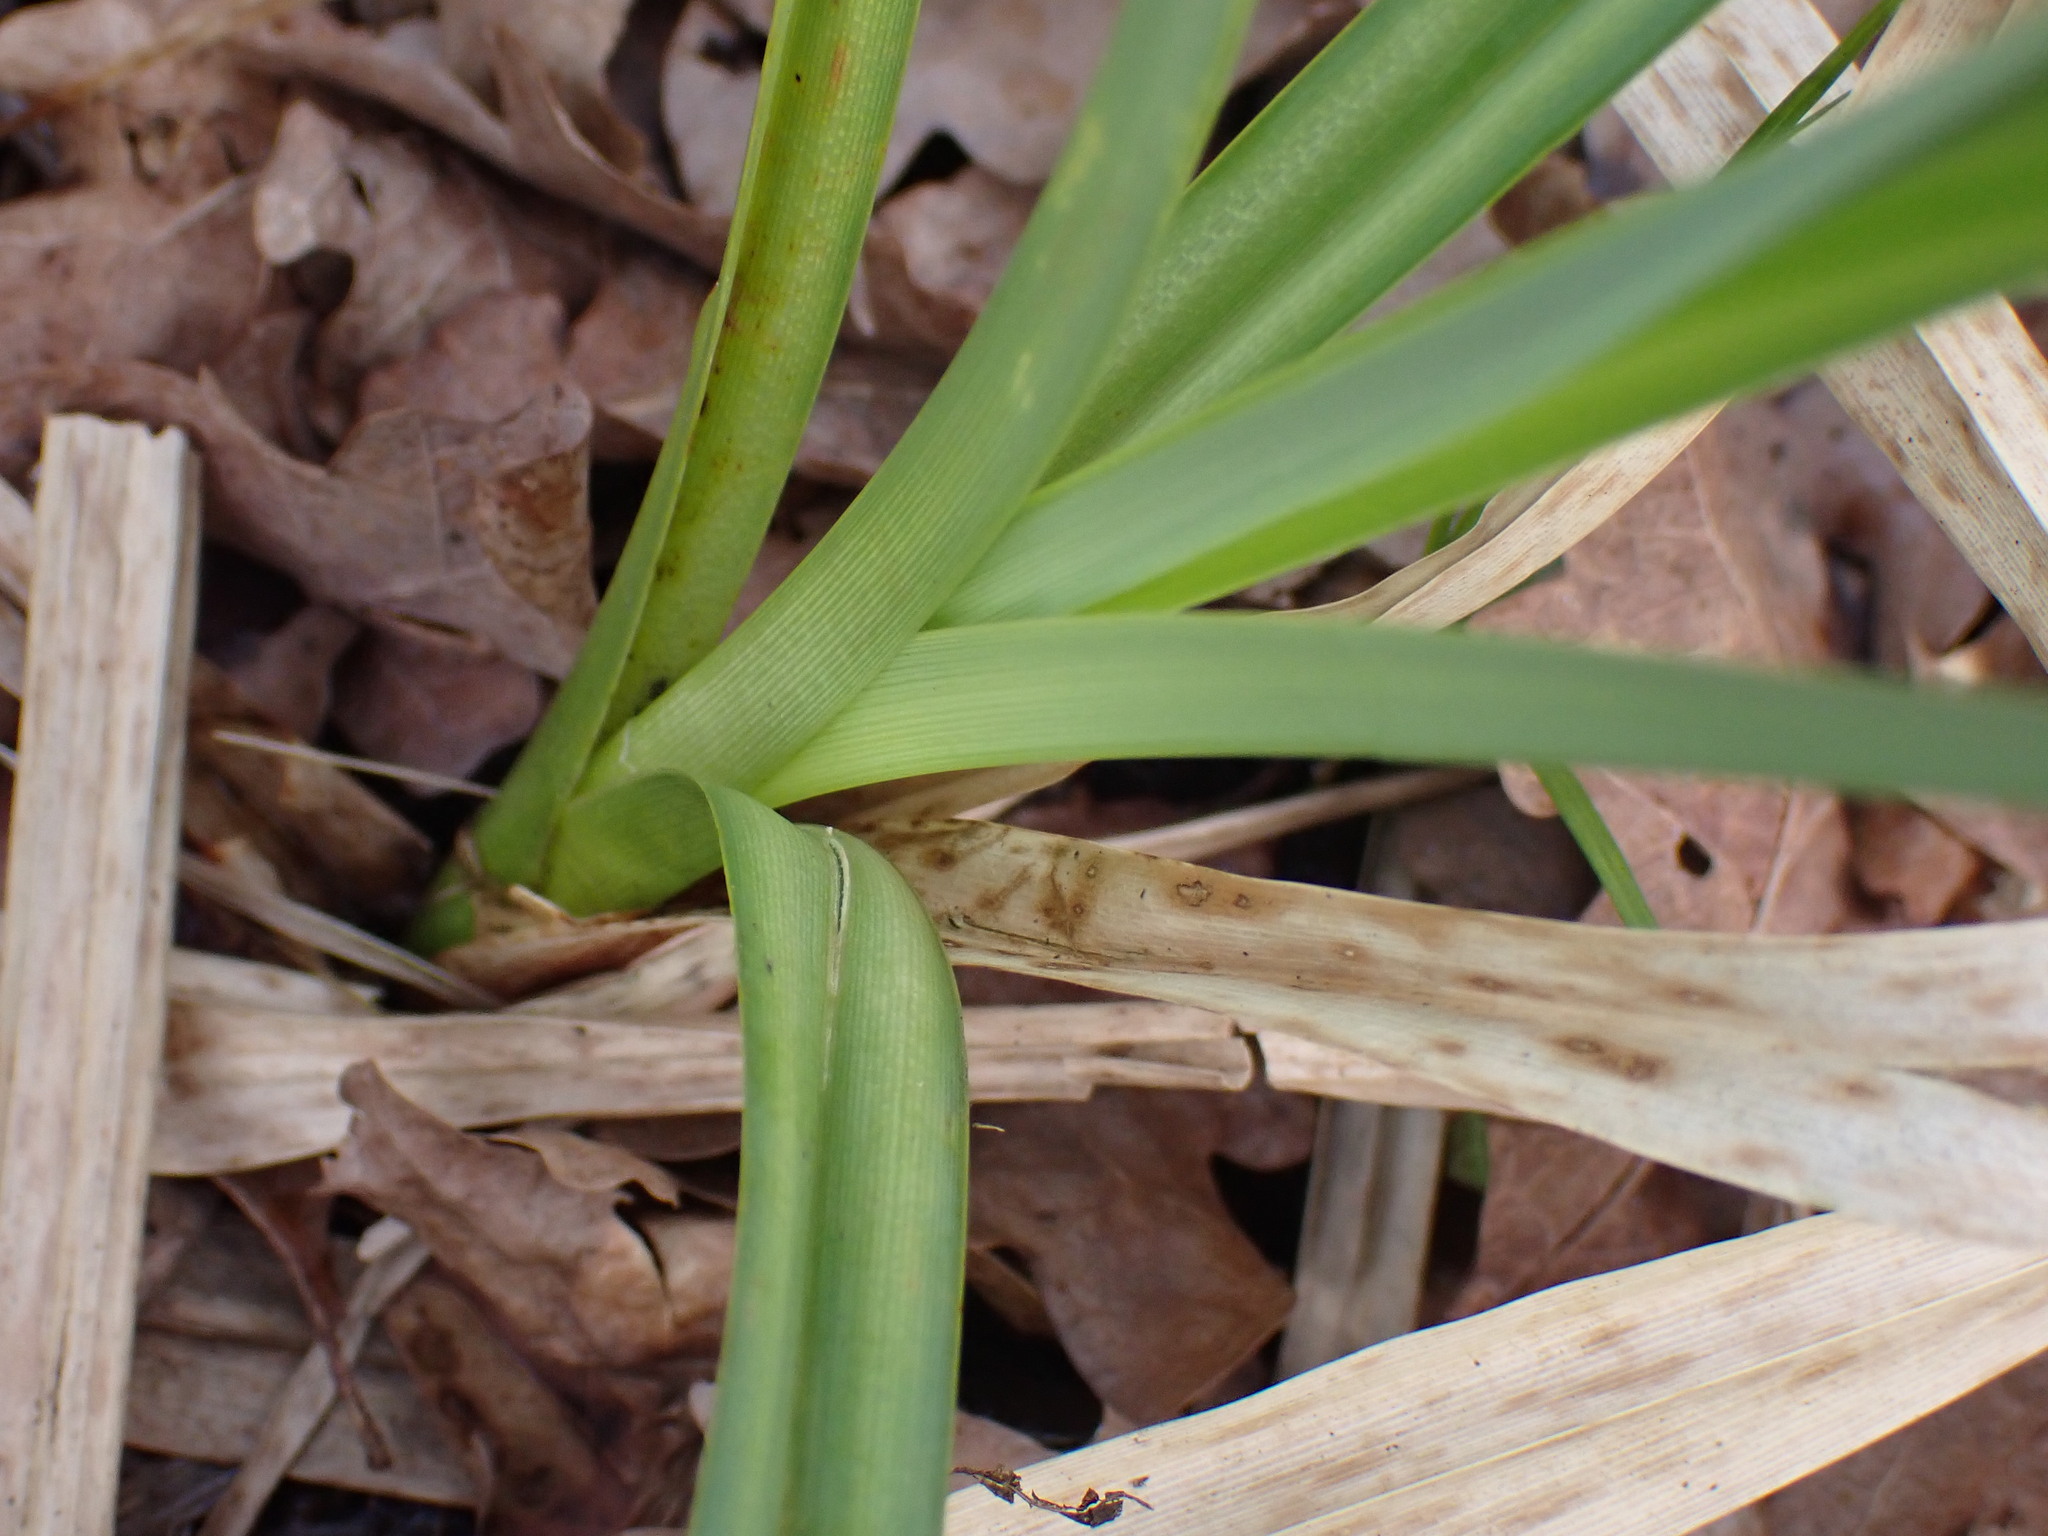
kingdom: Plantae
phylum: Tracheophyta
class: Liliopsida
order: Poales
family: Cyperaceae
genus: Carex
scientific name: Carex riparia
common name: Greater pond-sedge
